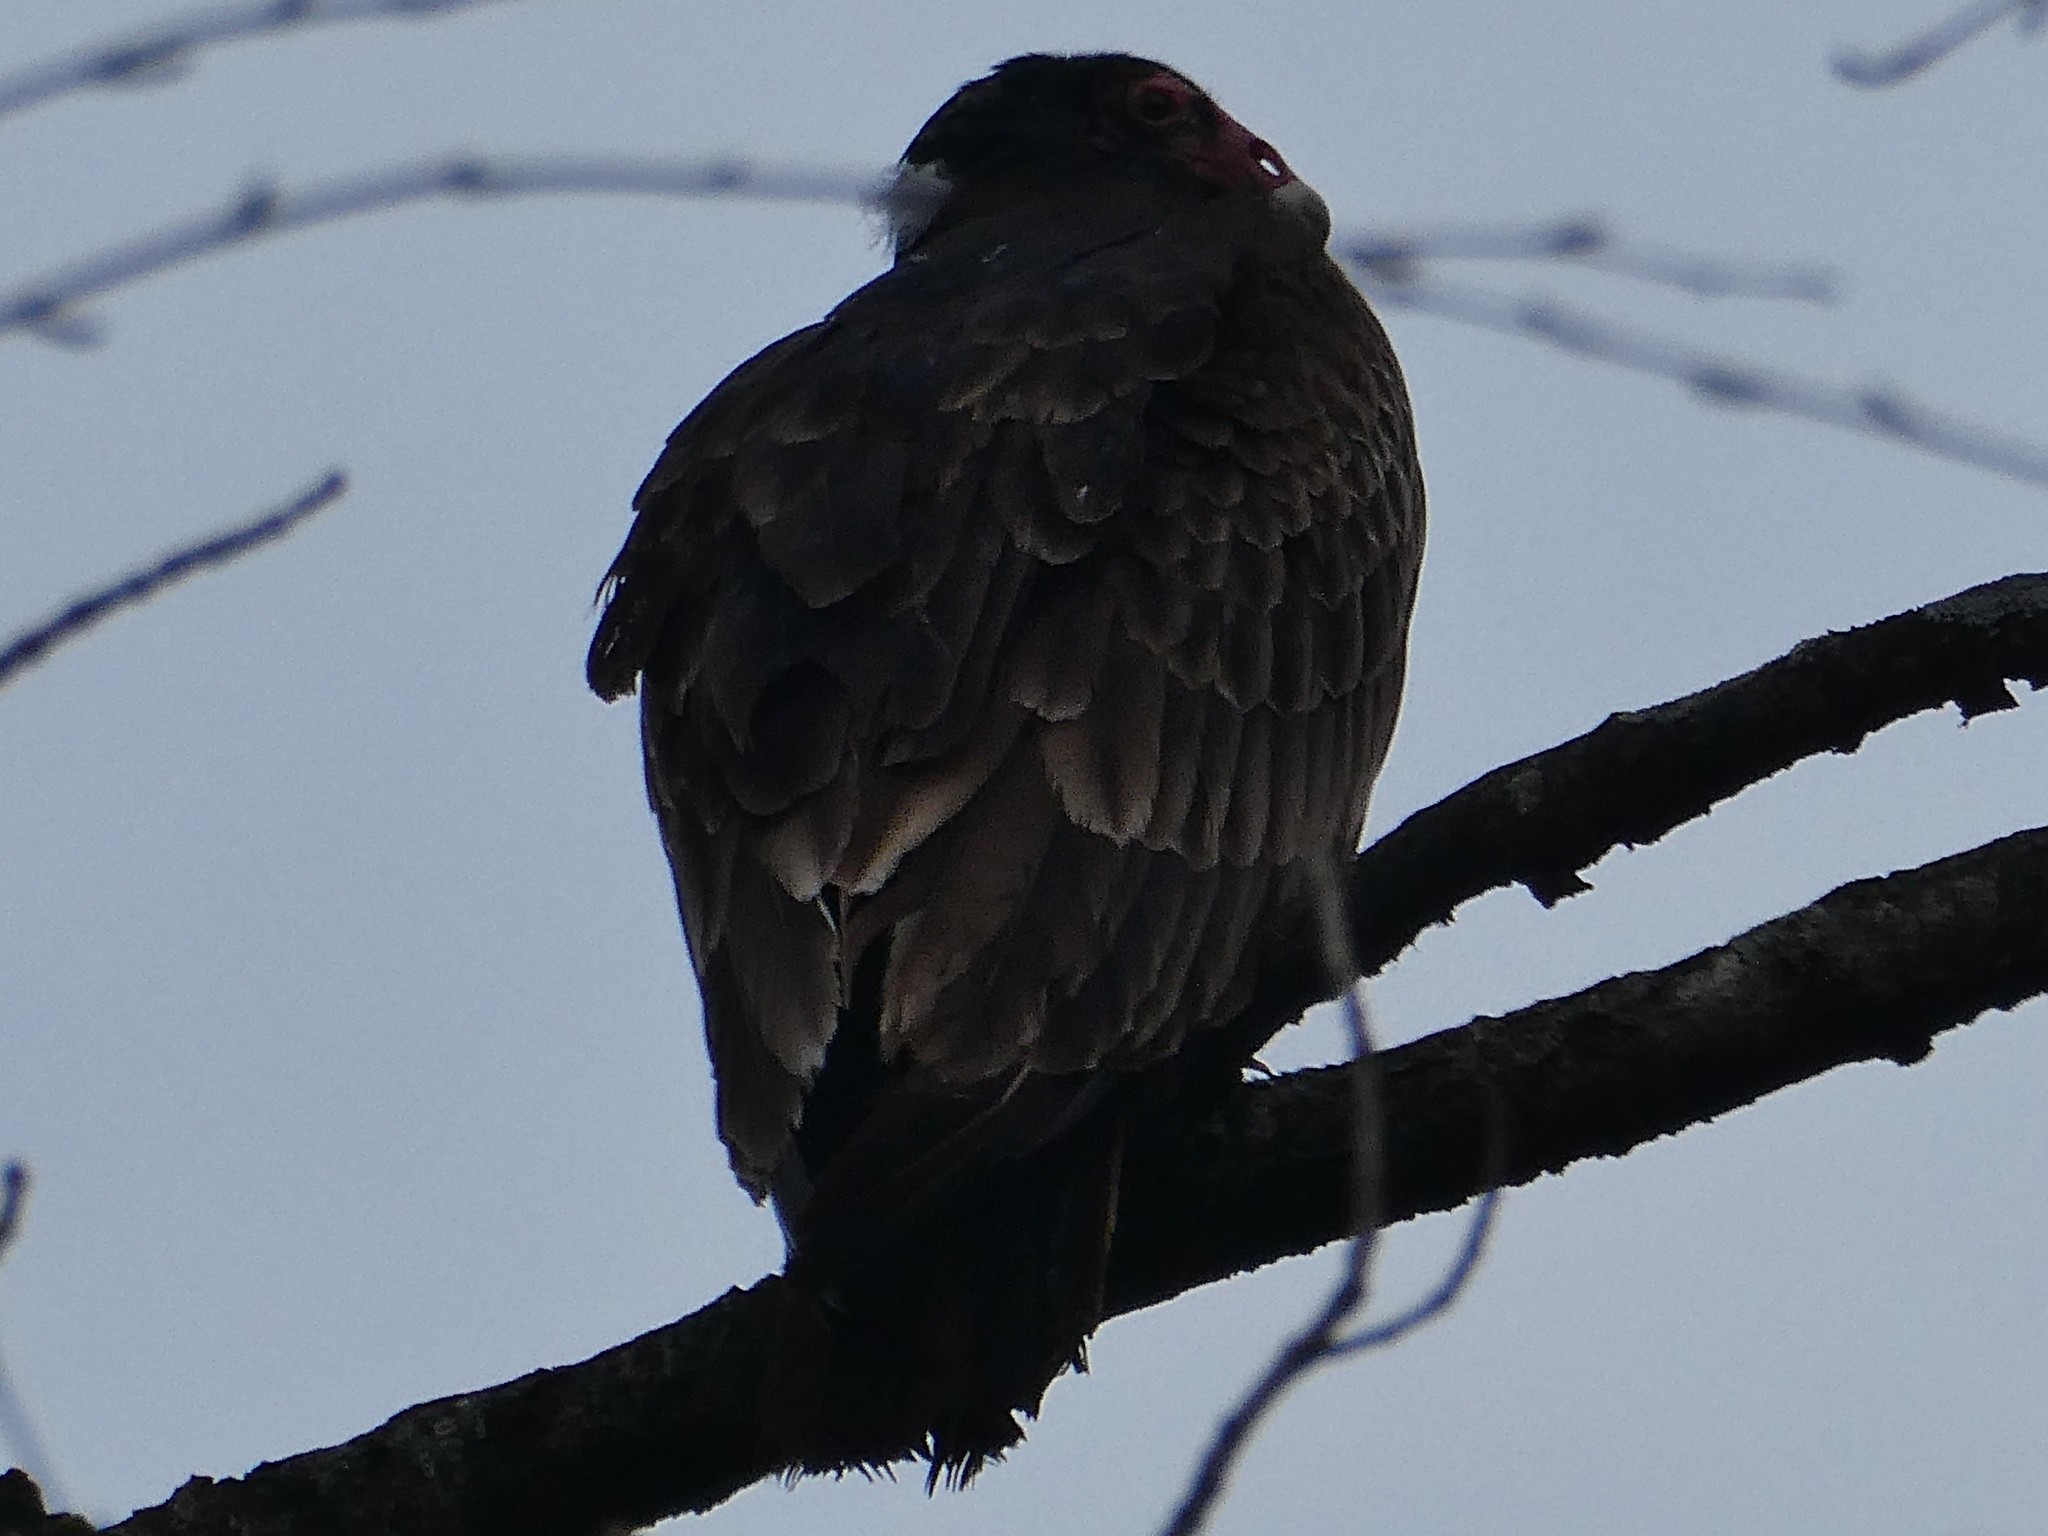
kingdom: Animalia
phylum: Chordata
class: Aves
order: Accipitriformes
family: Cathartidae
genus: Cathartes
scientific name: Cathartes aura
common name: Turkey vulture
